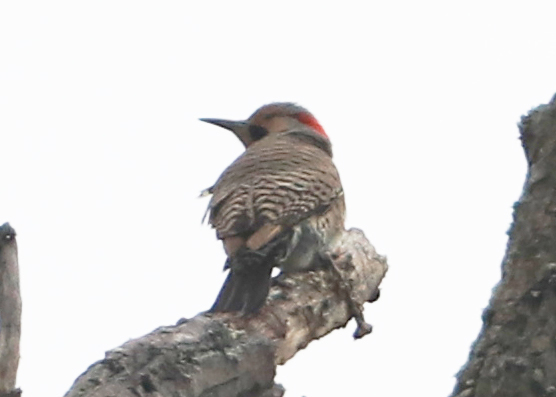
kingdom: Animalia
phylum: Chordata
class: Aves
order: Piciformes
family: Picidae
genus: Colaptes
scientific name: Colaptes auratus
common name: Northern flicker
